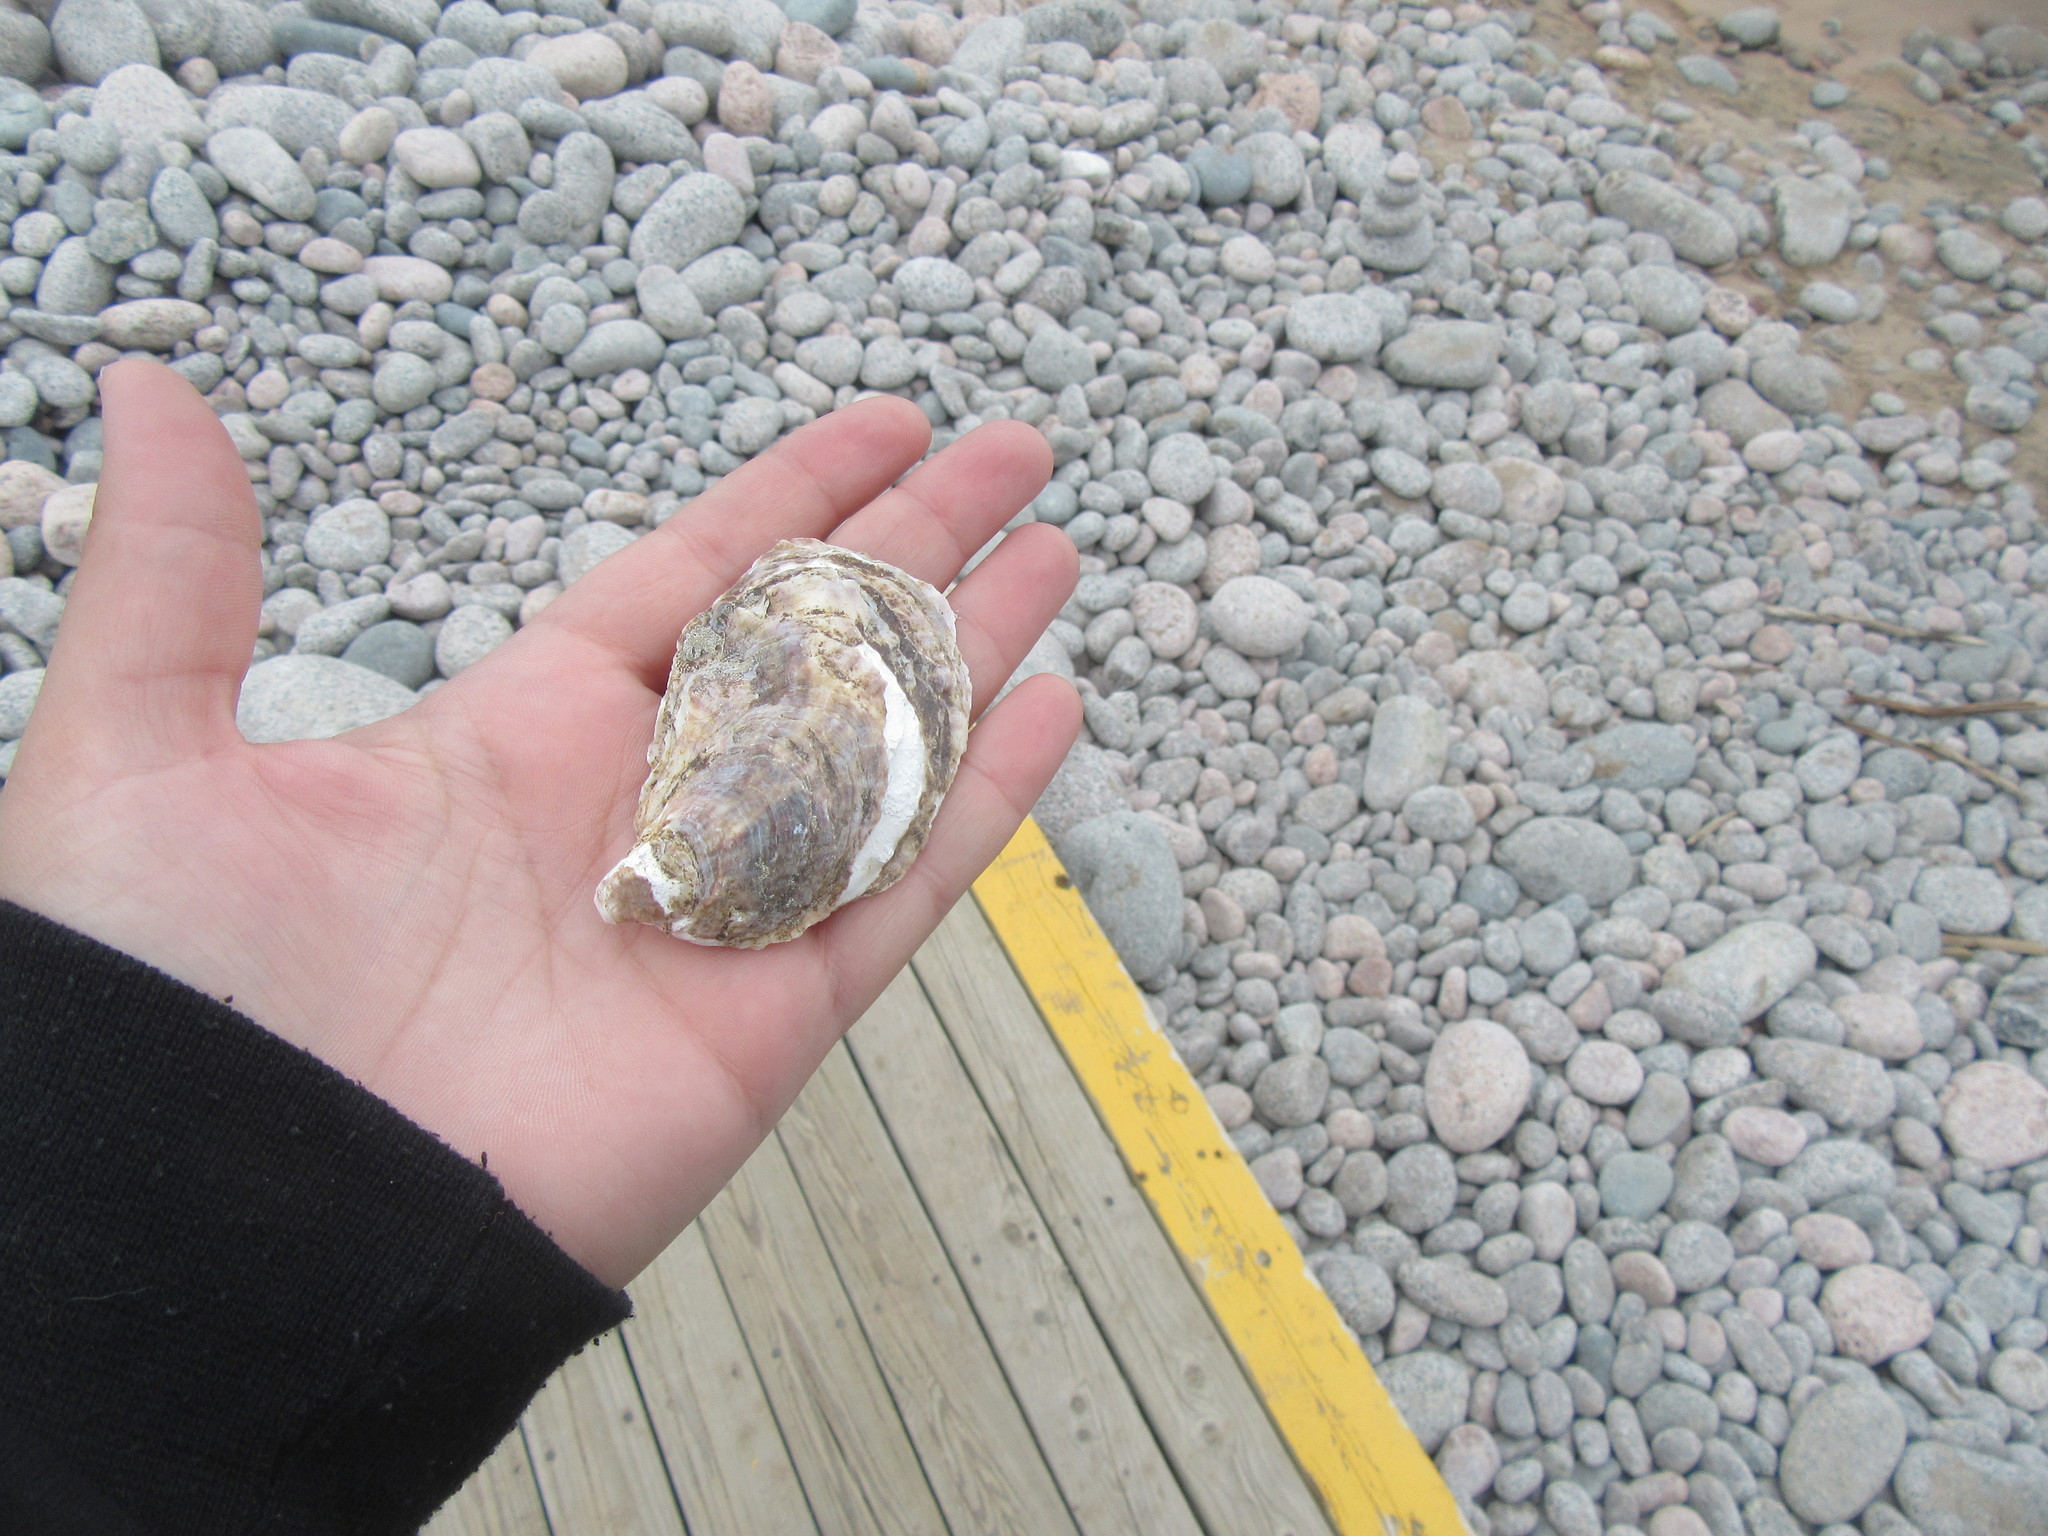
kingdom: Animalia
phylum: Mollusca
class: Bivalvia
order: Ostreida
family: Ostreidae
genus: Crassostrea
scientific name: Crassostrea virginica
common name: American oyster
